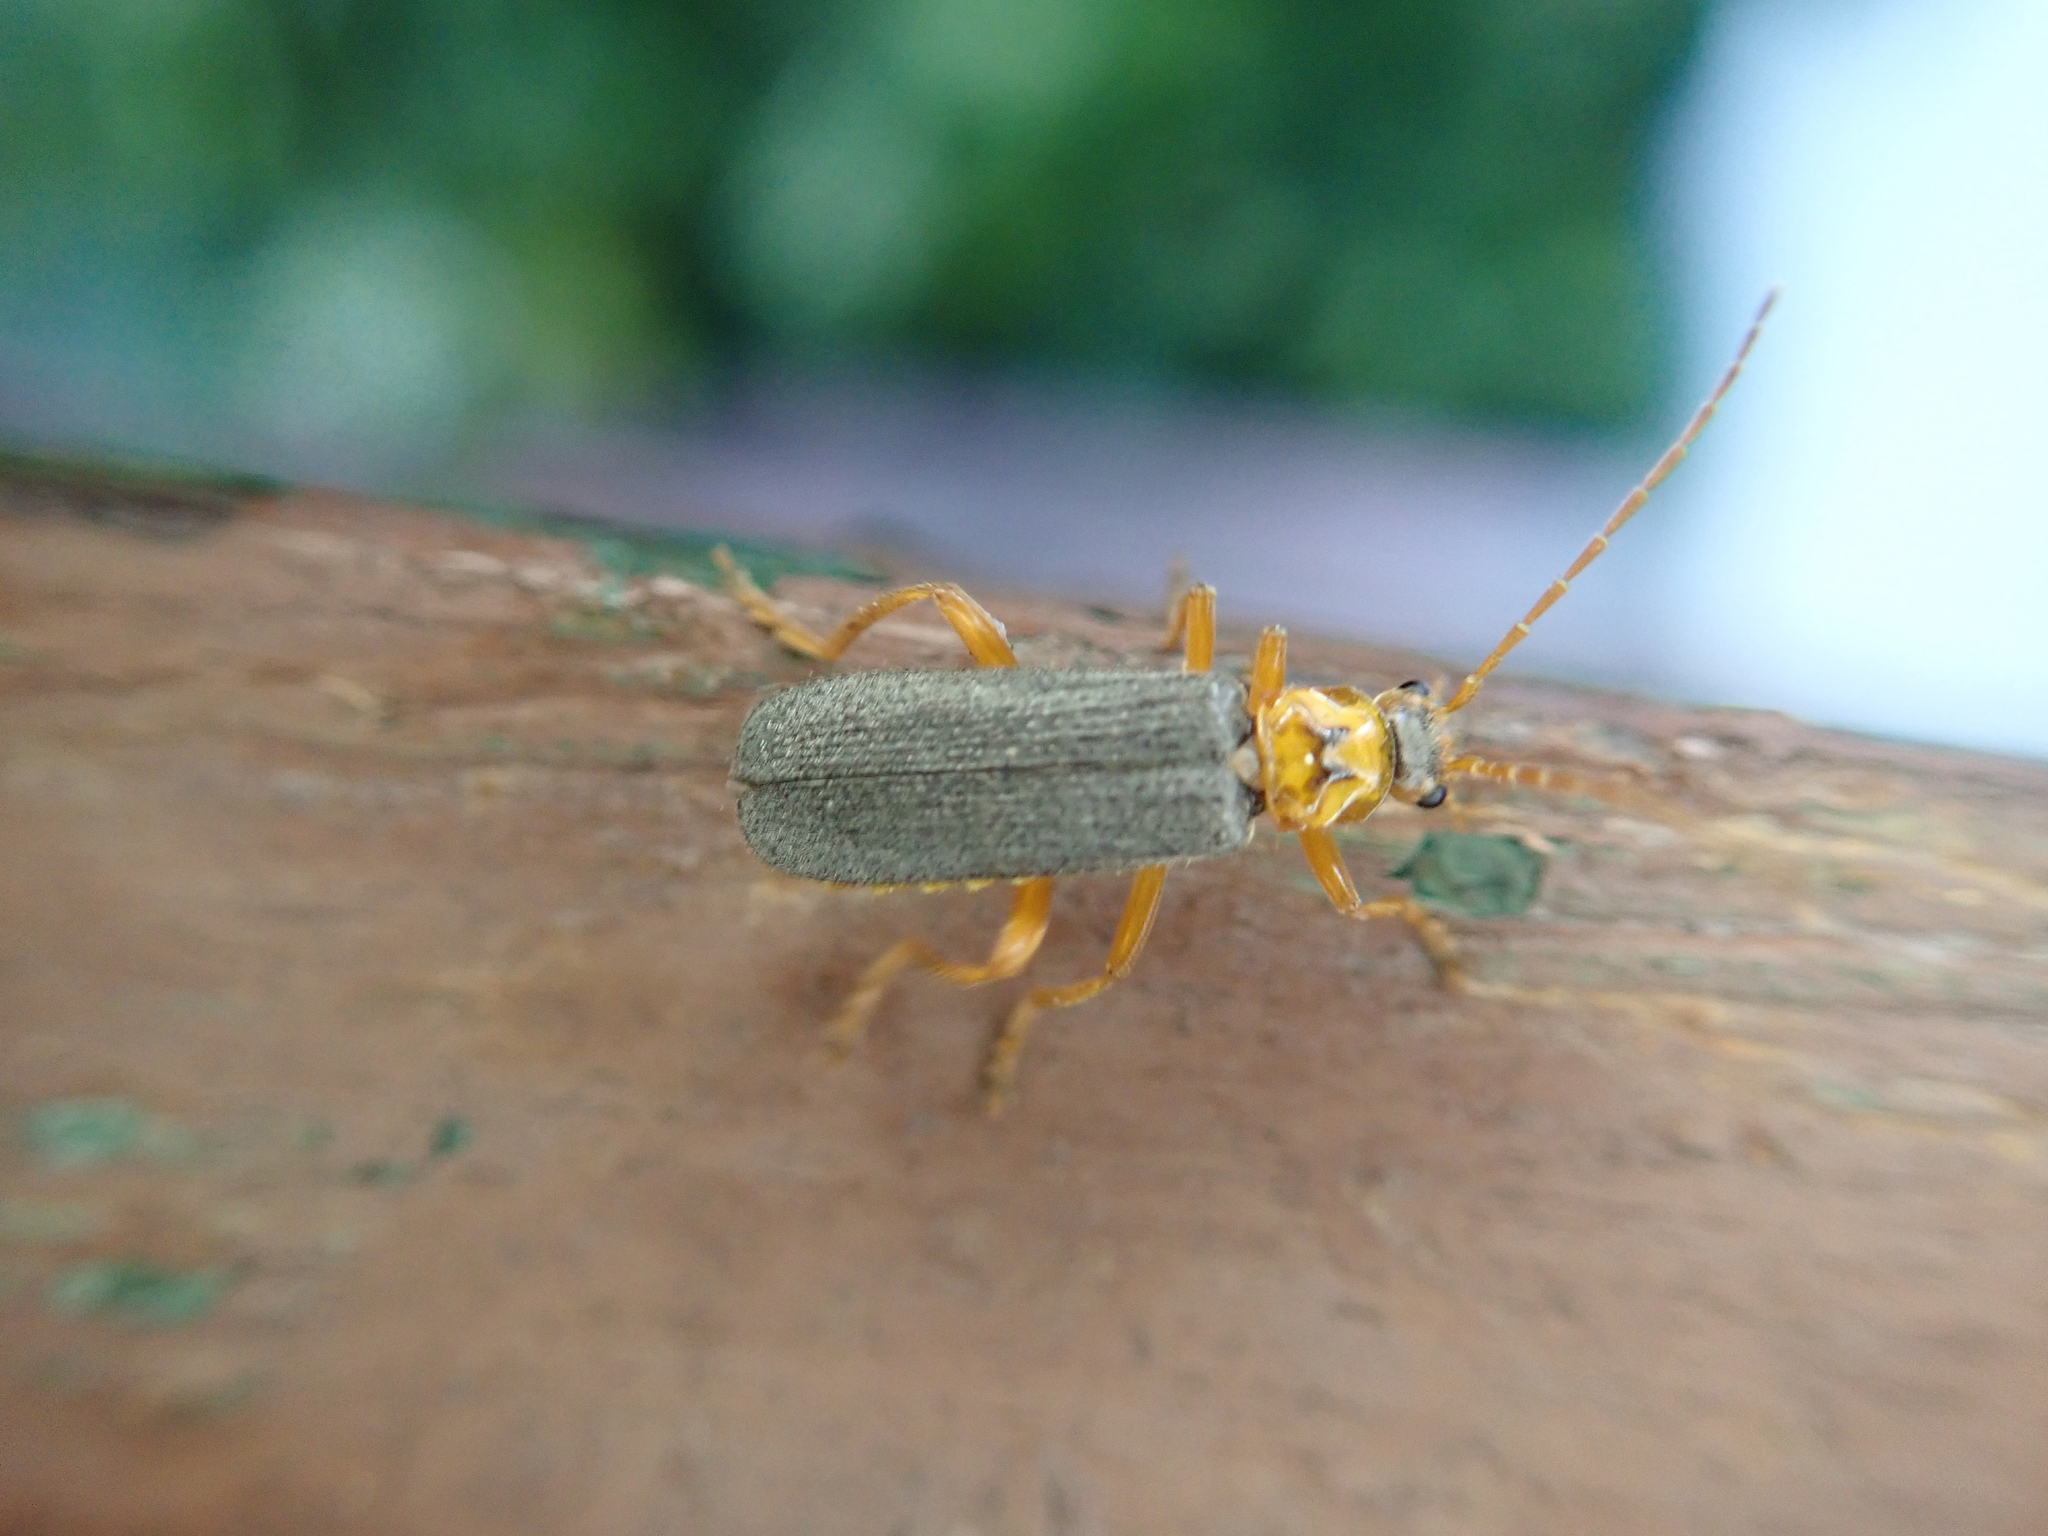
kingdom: Animalia
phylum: Arthropoda
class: Insecta
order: Coleoptera
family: Cantharidae
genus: Cultellunguis
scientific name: Cultellunguis americanus
